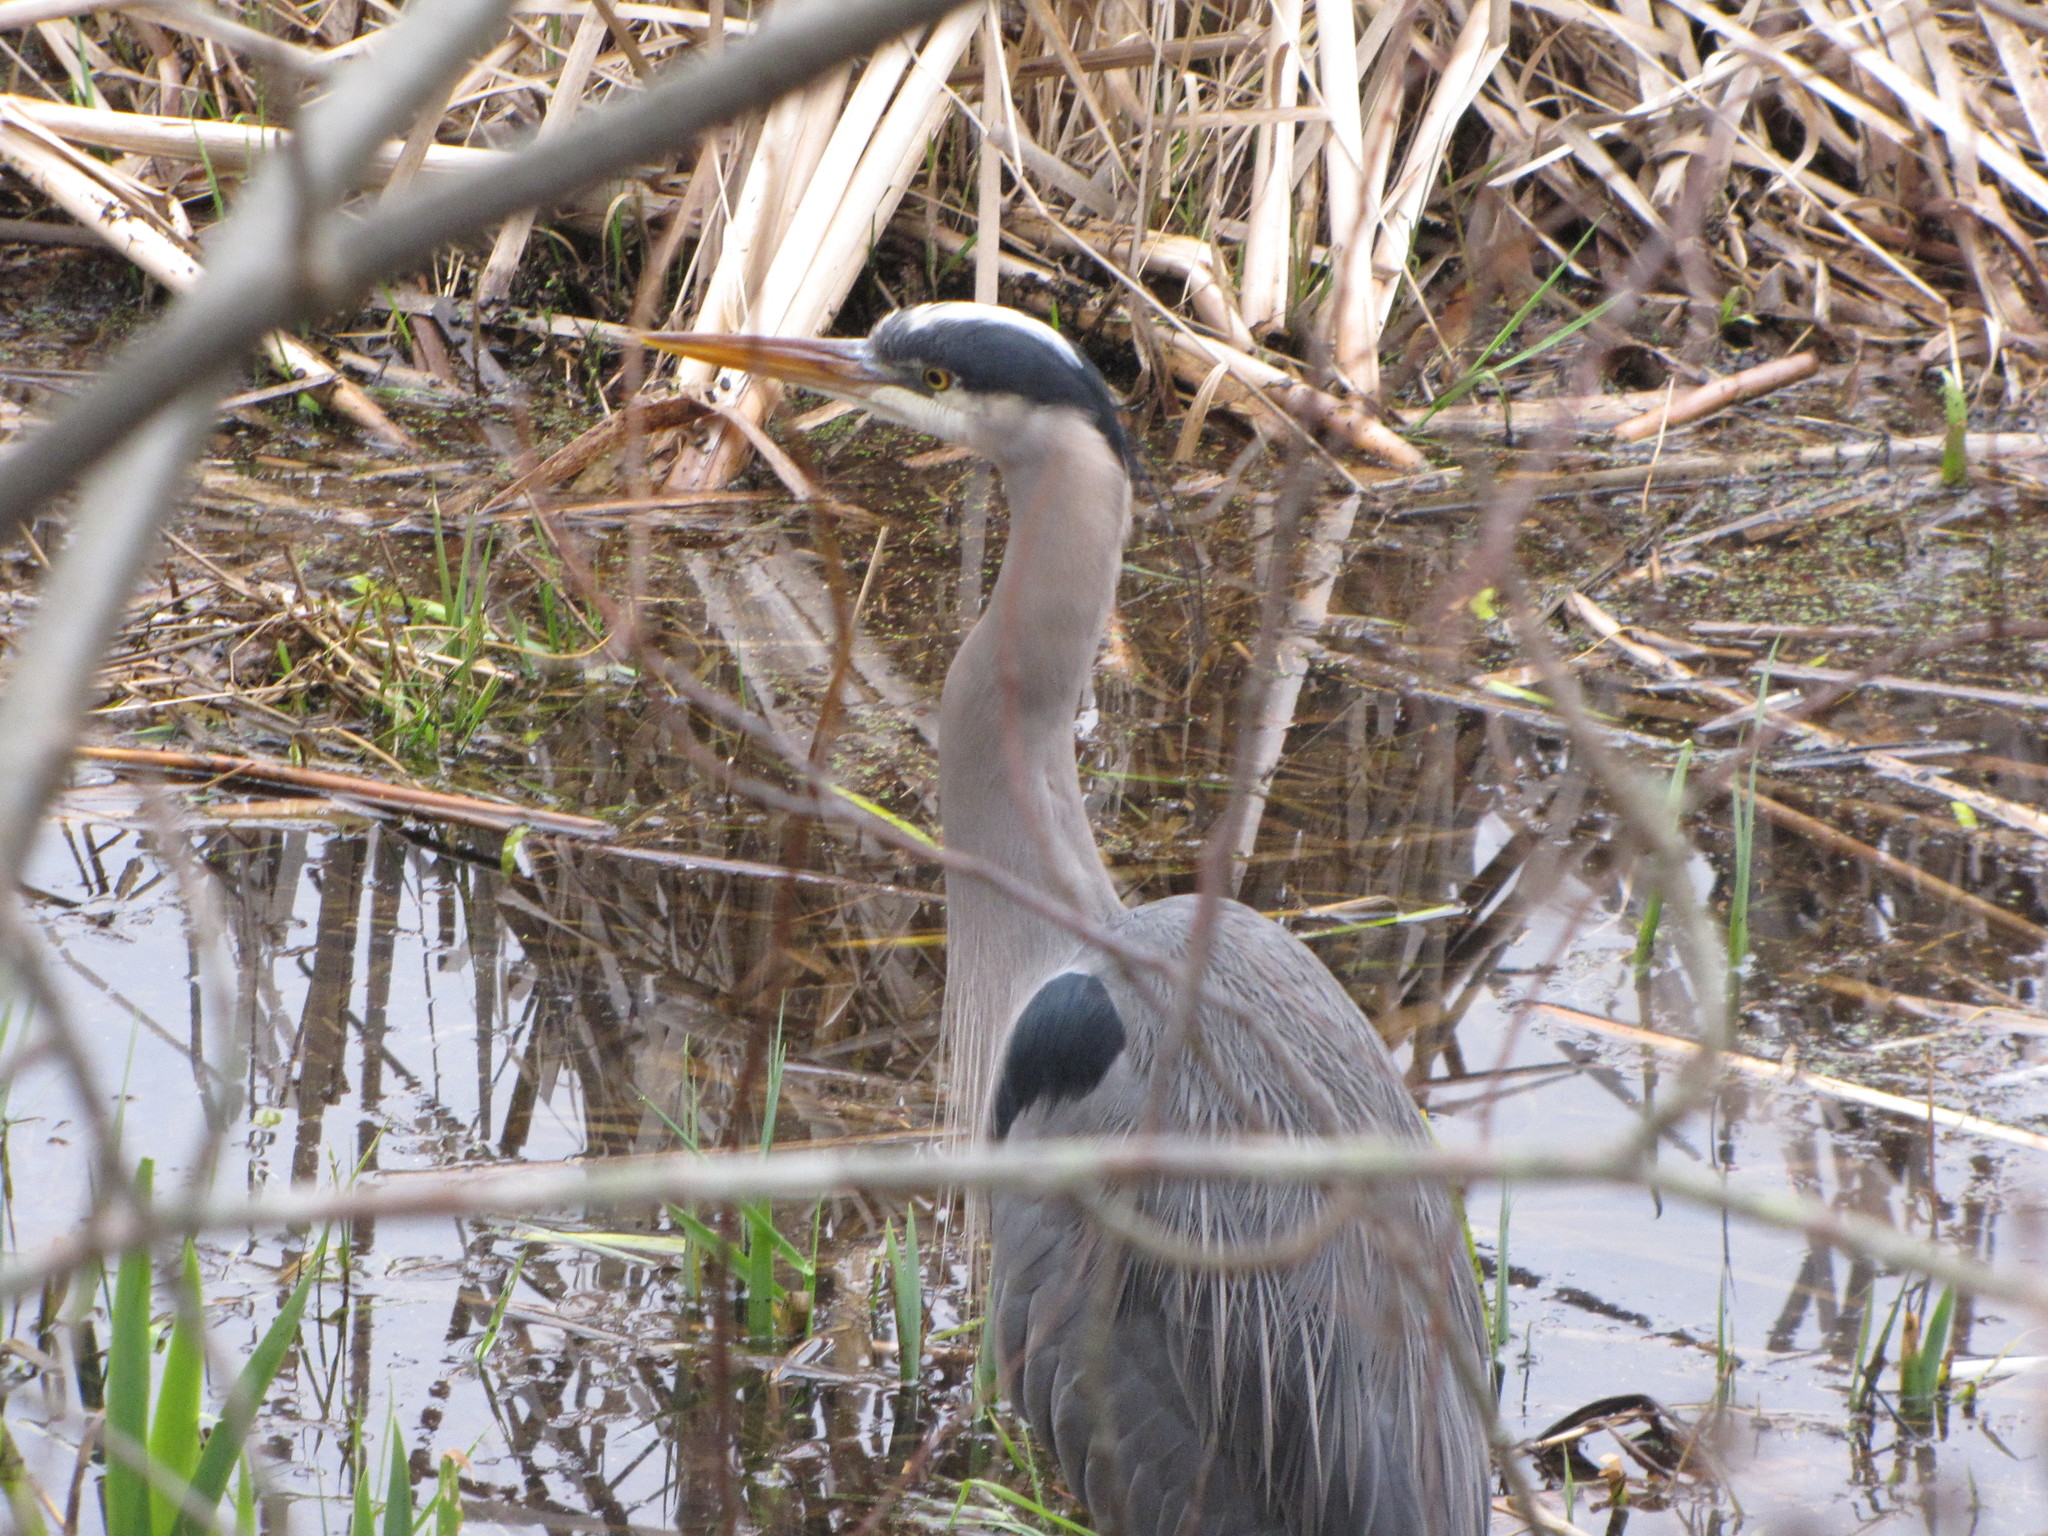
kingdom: Animalia
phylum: Chordata
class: Aves
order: Pelecaniformes
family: Ardeidae
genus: Ardea
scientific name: Ardea herodias
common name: Great blue heron
